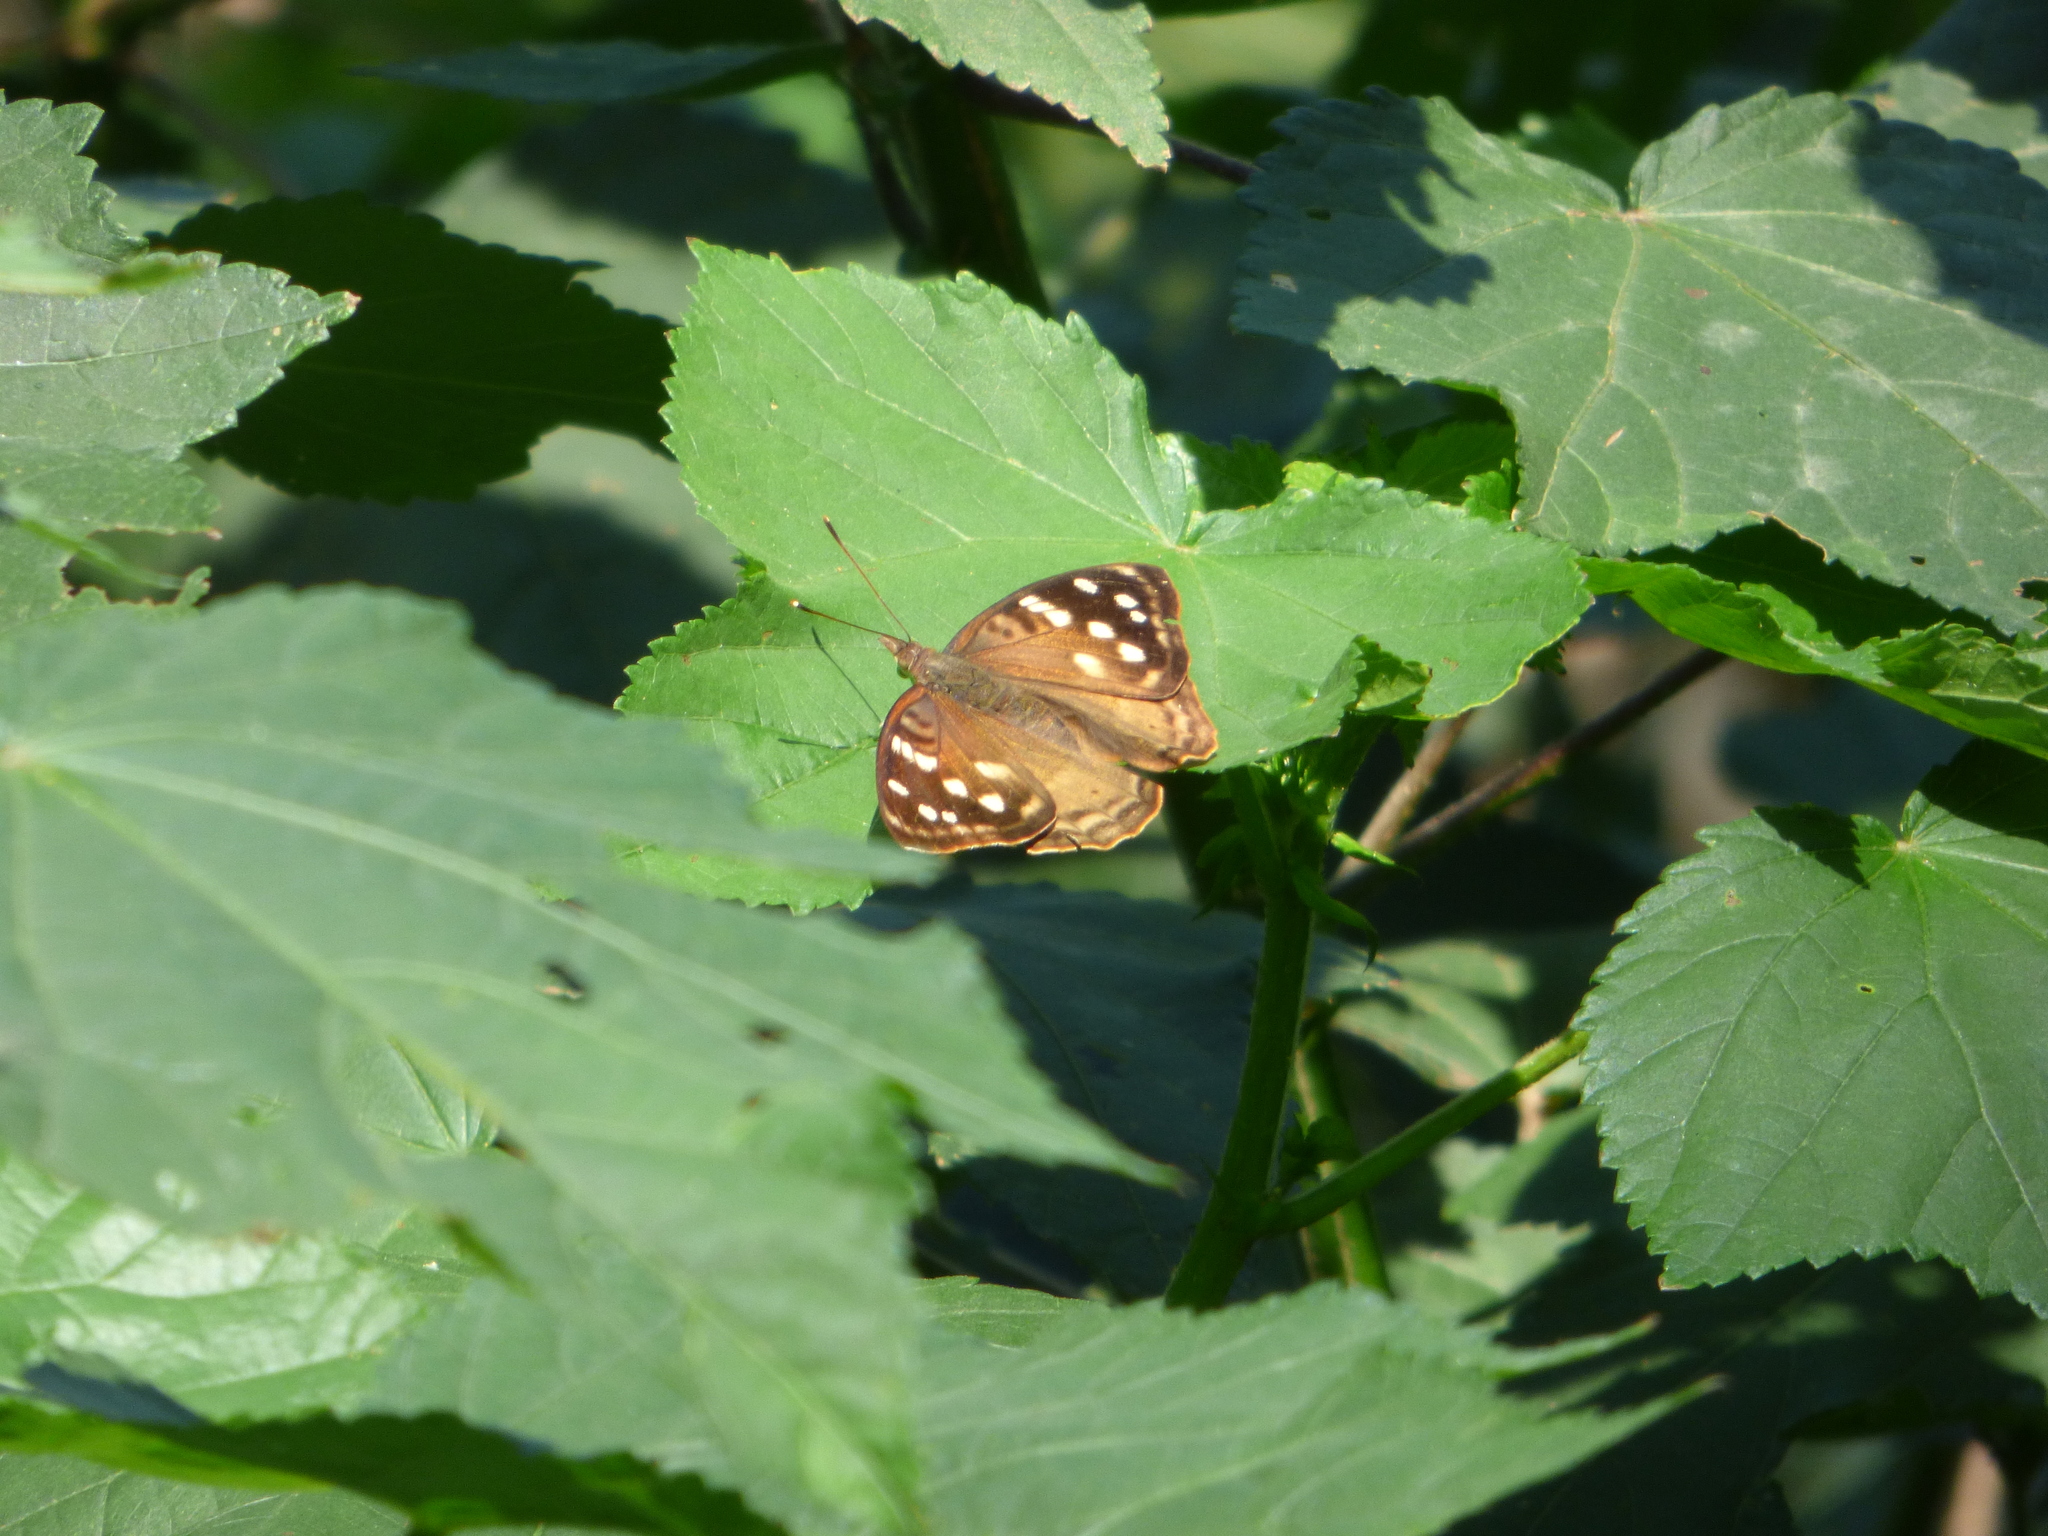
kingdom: Animalia
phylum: Arthropoda
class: Insecta
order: Lepidoptera
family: Nymphalidae
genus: Doxocopa
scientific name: Doxocopa kallina
